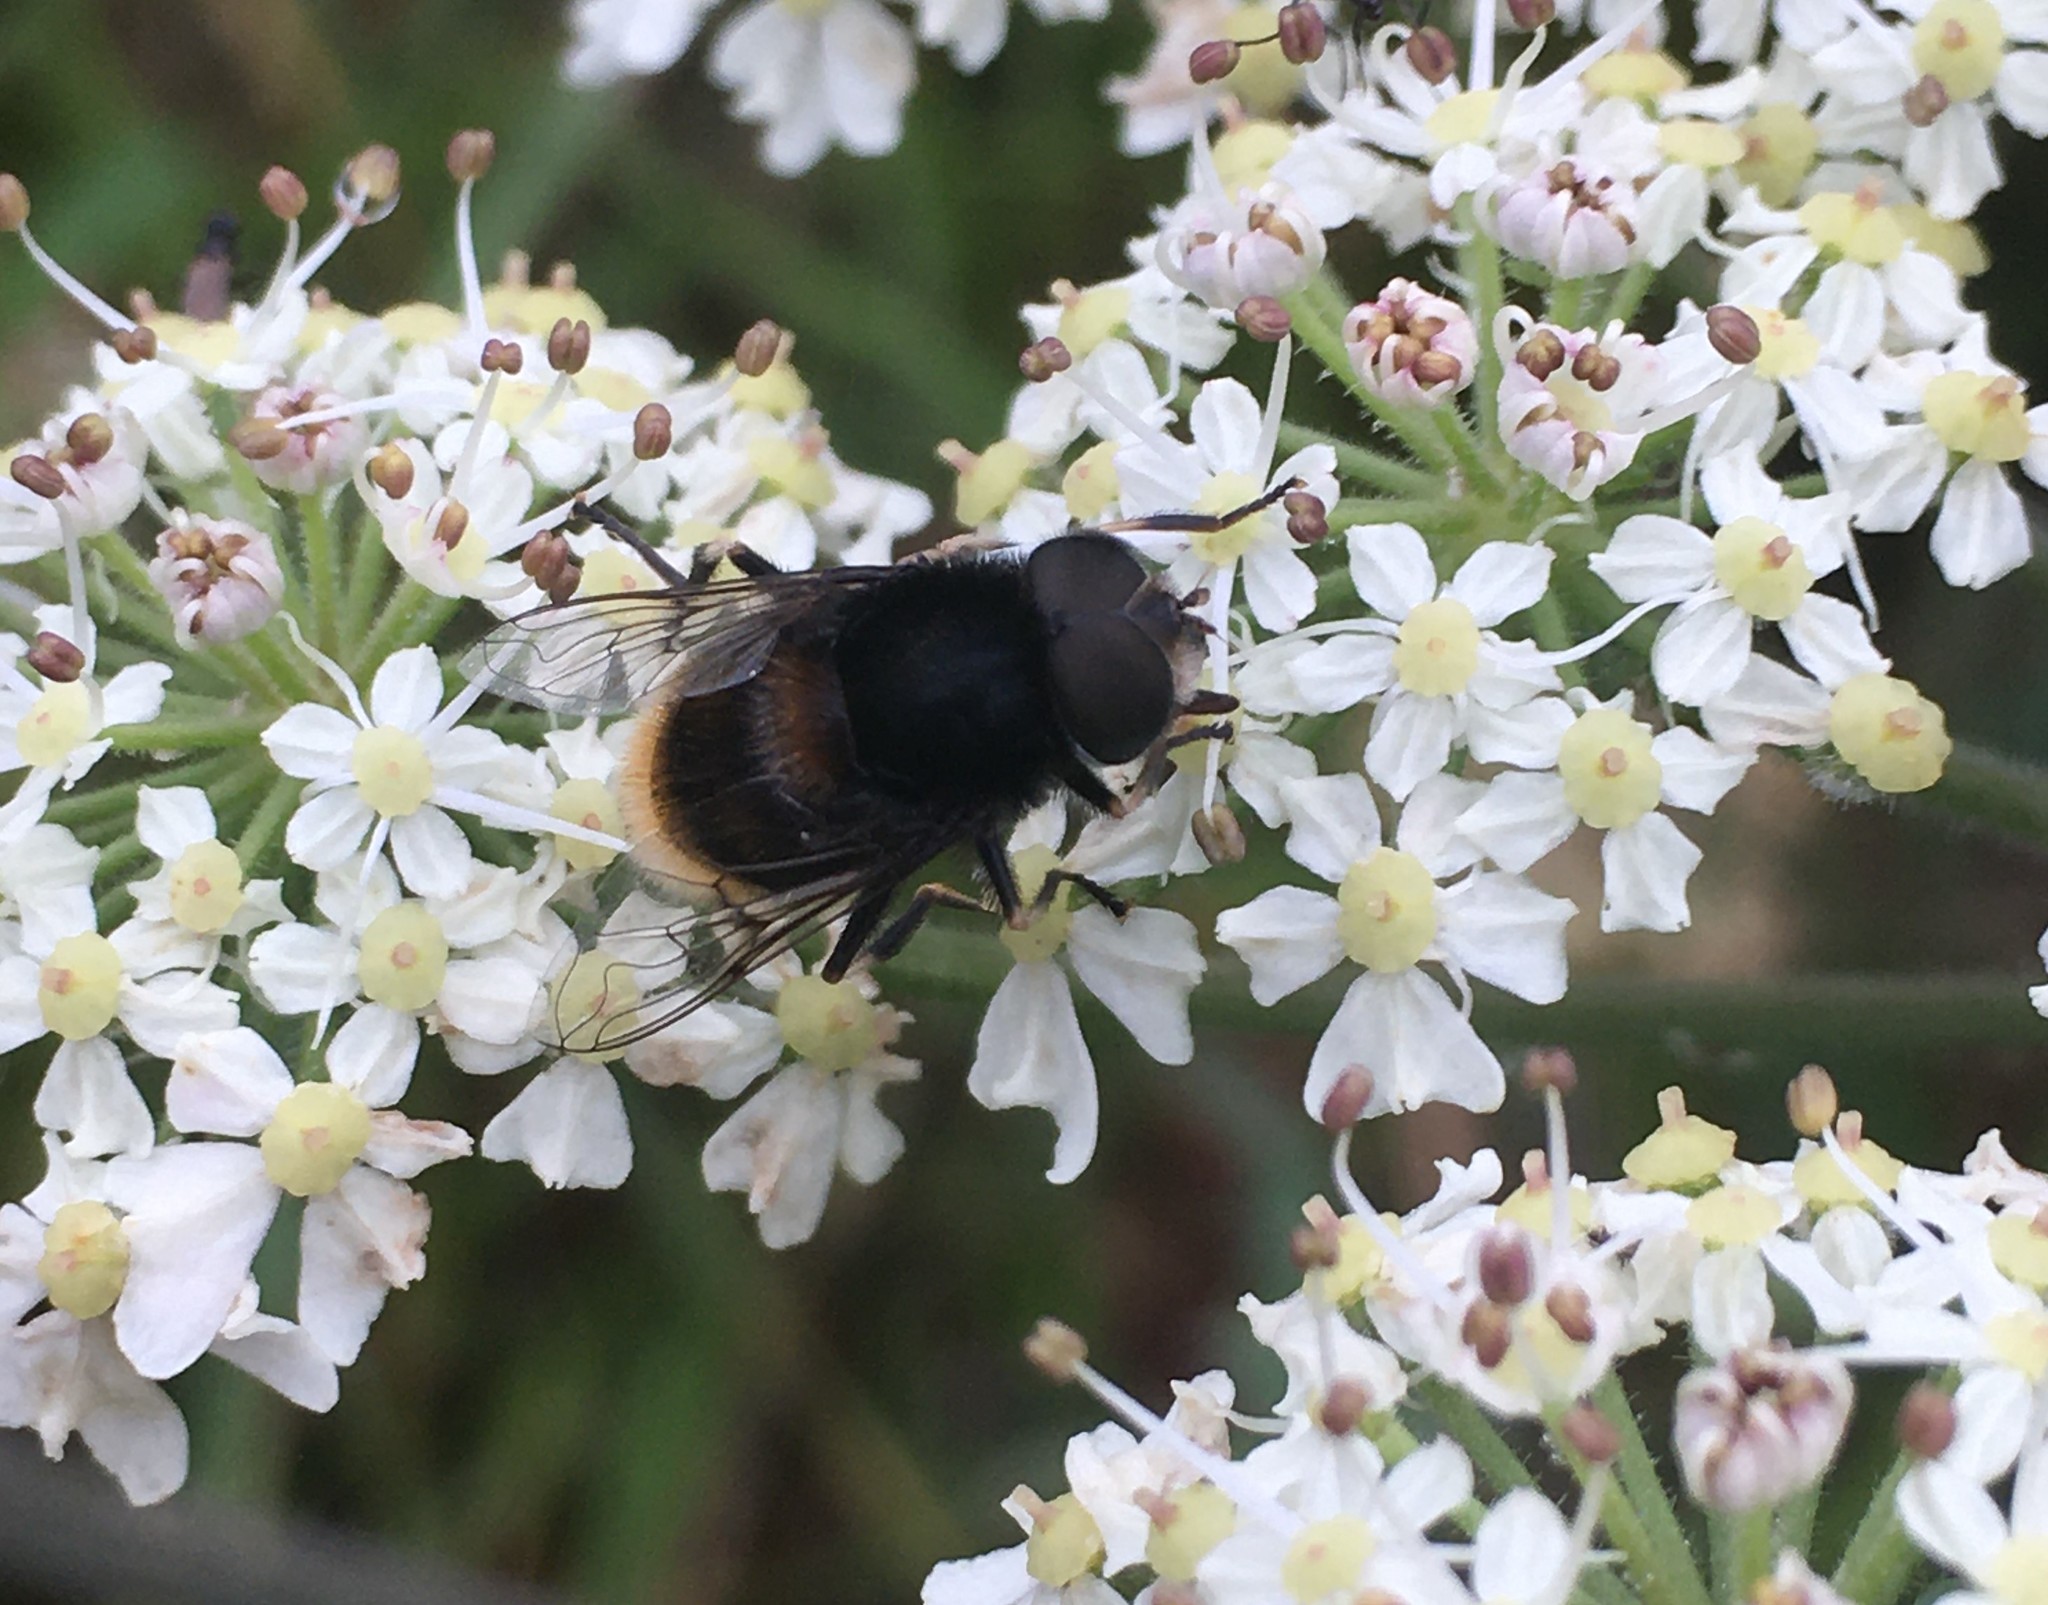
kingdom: Animalia
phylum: Arthropoda
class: Insecta
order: Diptera
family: Syrphidae
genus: Eristalis
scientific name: Eristalis intricaria
